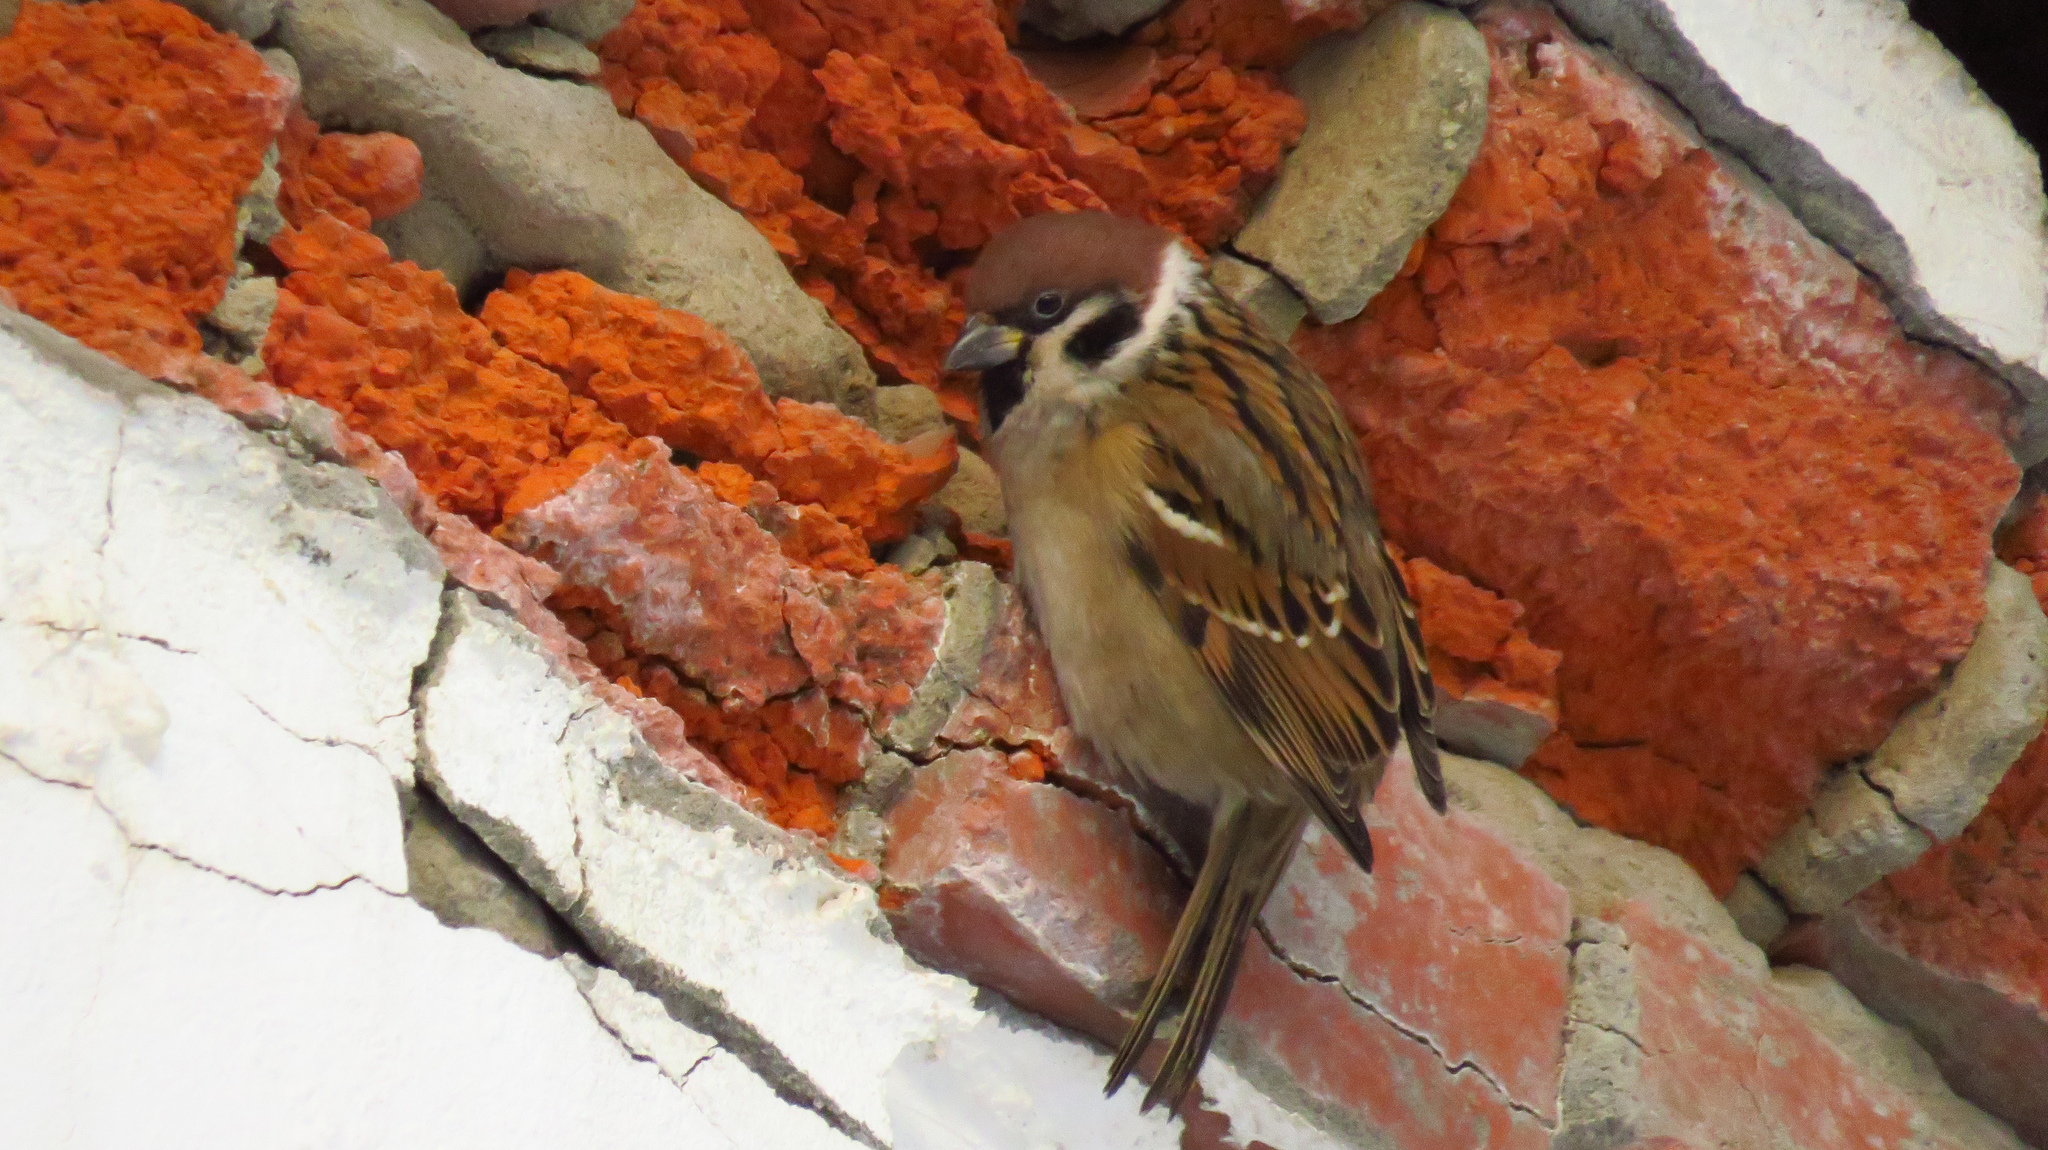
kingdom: Animalia
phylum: Chordata
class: Aves
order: Passeriformes
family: Passeridae
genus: Passer
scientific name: Passer montanus
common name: Eurasian tree sparrow
